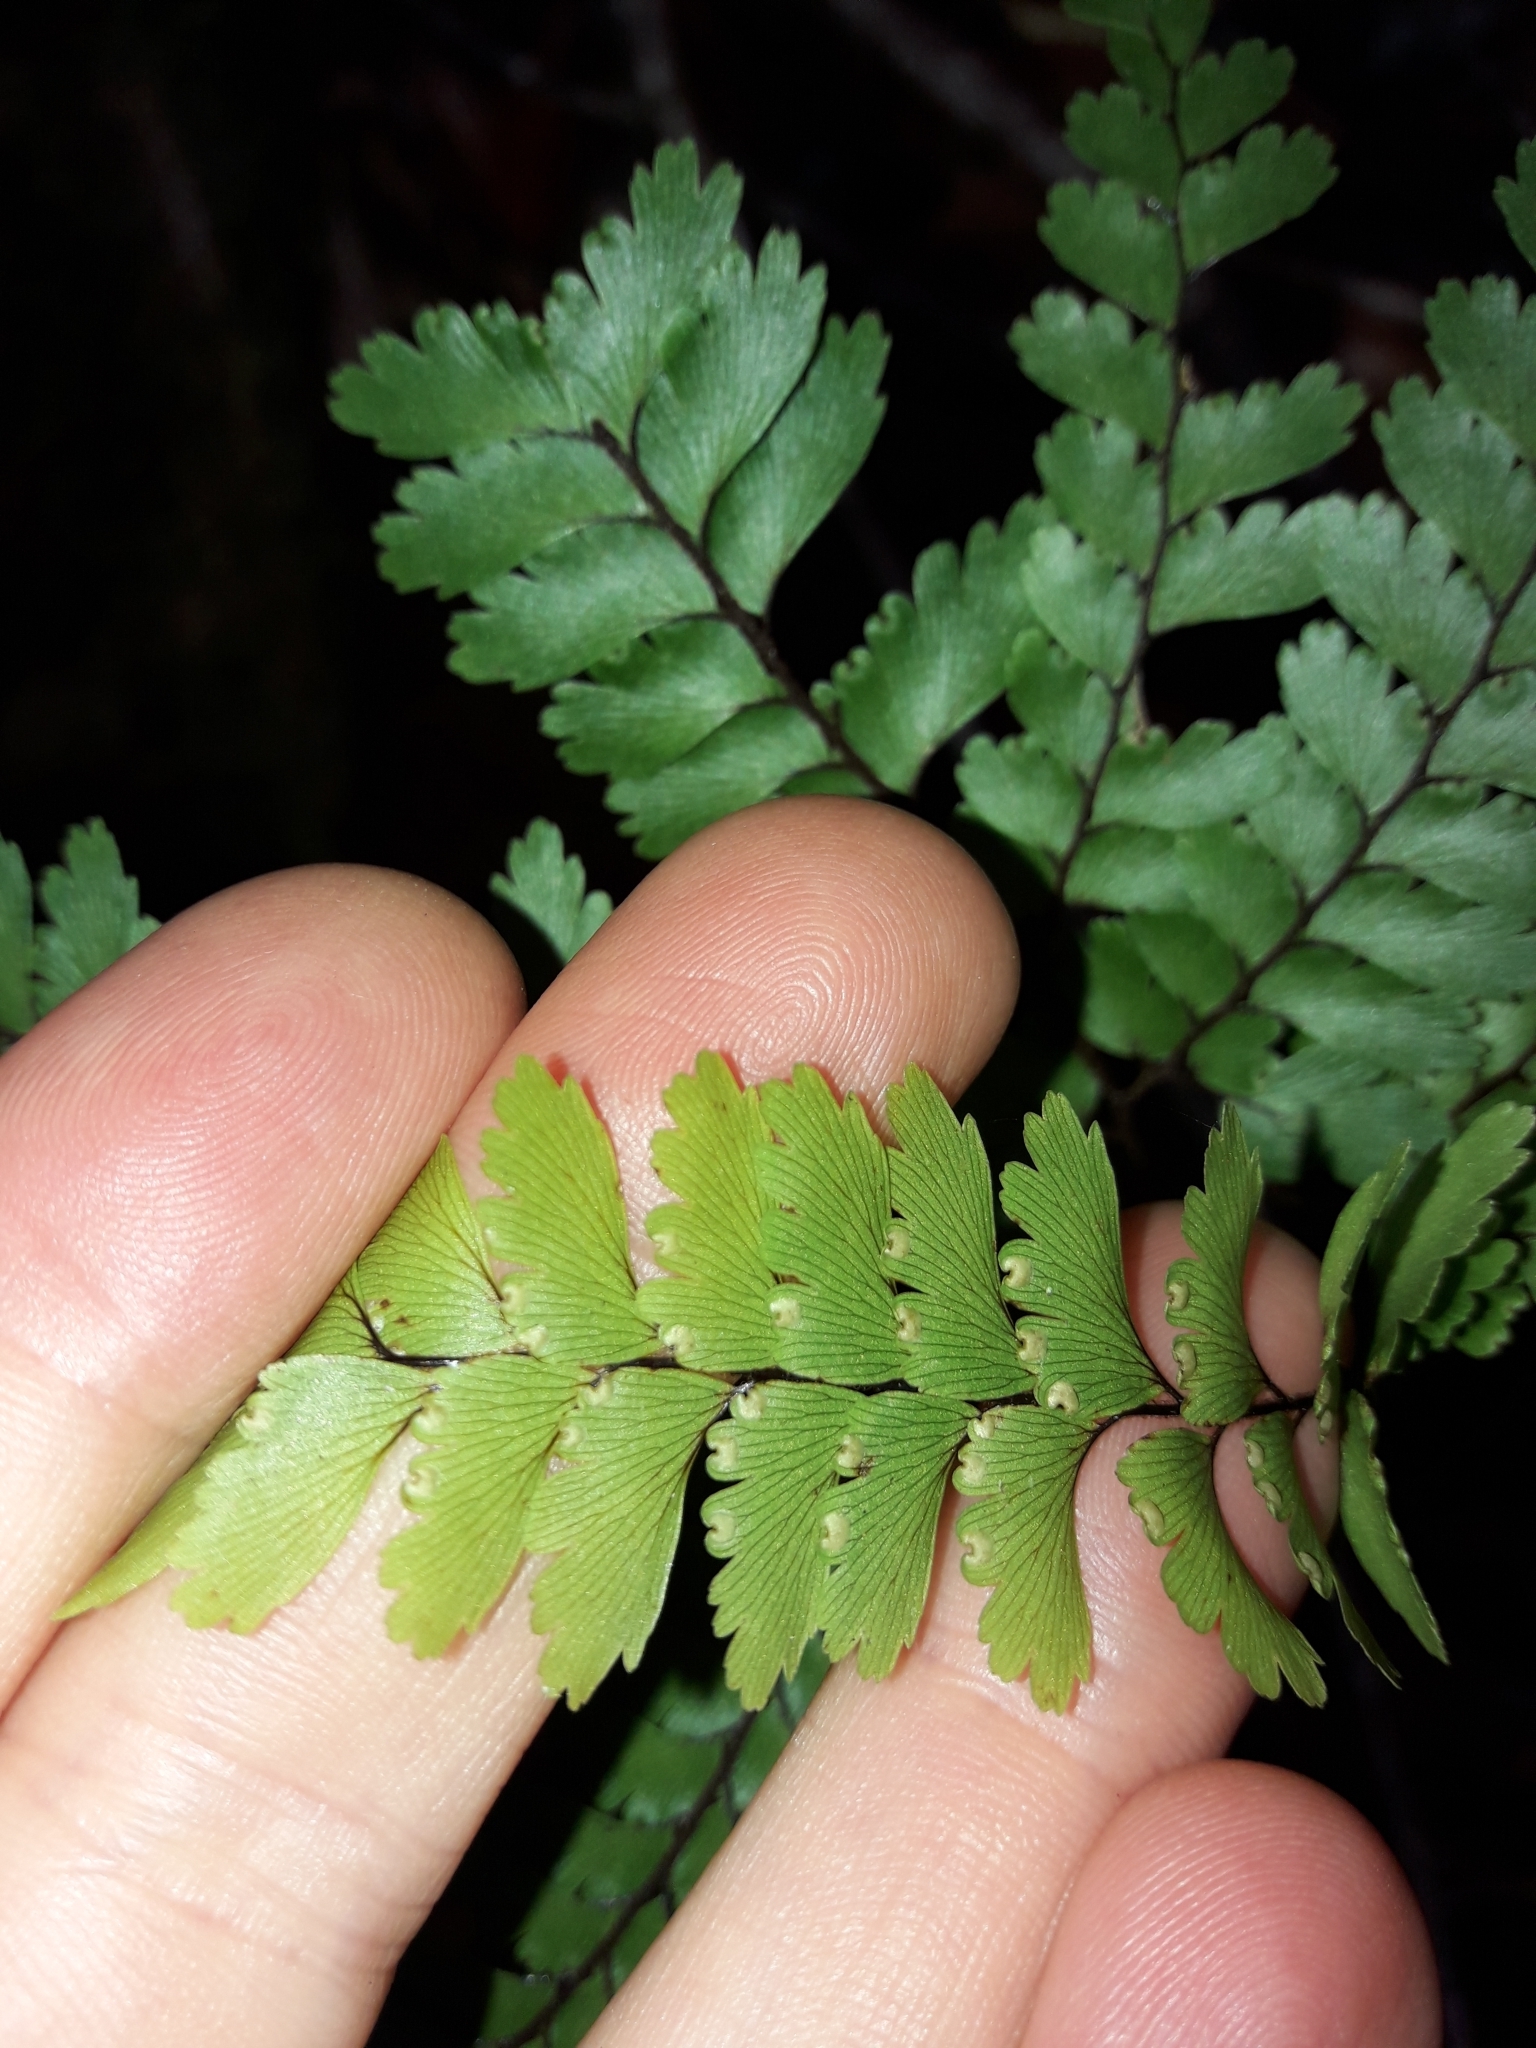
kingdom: Plantae
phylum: Tracheophyta
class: Polypodiopsida
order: Polypodiales
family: Pteridaceae
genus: Adiantum
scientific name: Adiantum novae-caledoniae
